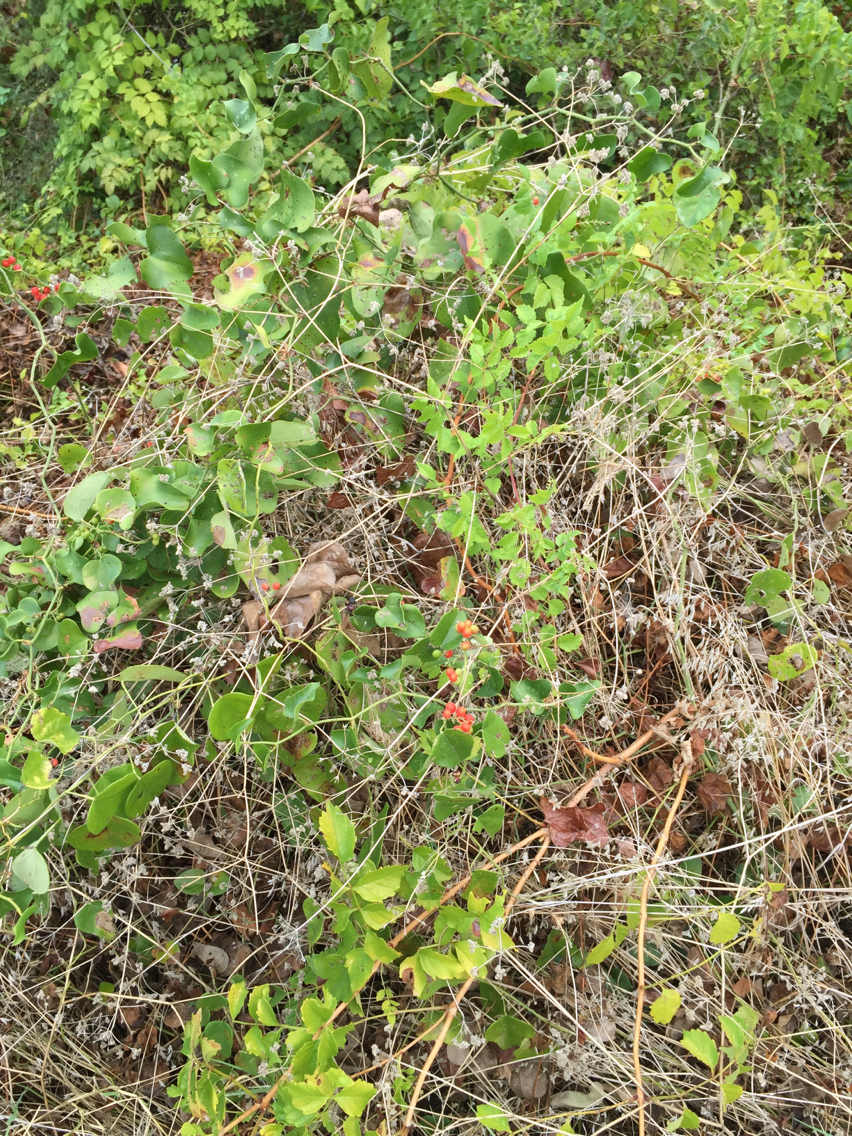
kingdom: Plantae
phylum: Tracheophyta
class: Magnoliopsida
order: Ranunculales
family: Menispermaceae
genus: Cocculus
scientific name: Cocculus carolinus
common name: Carolina moonseed
